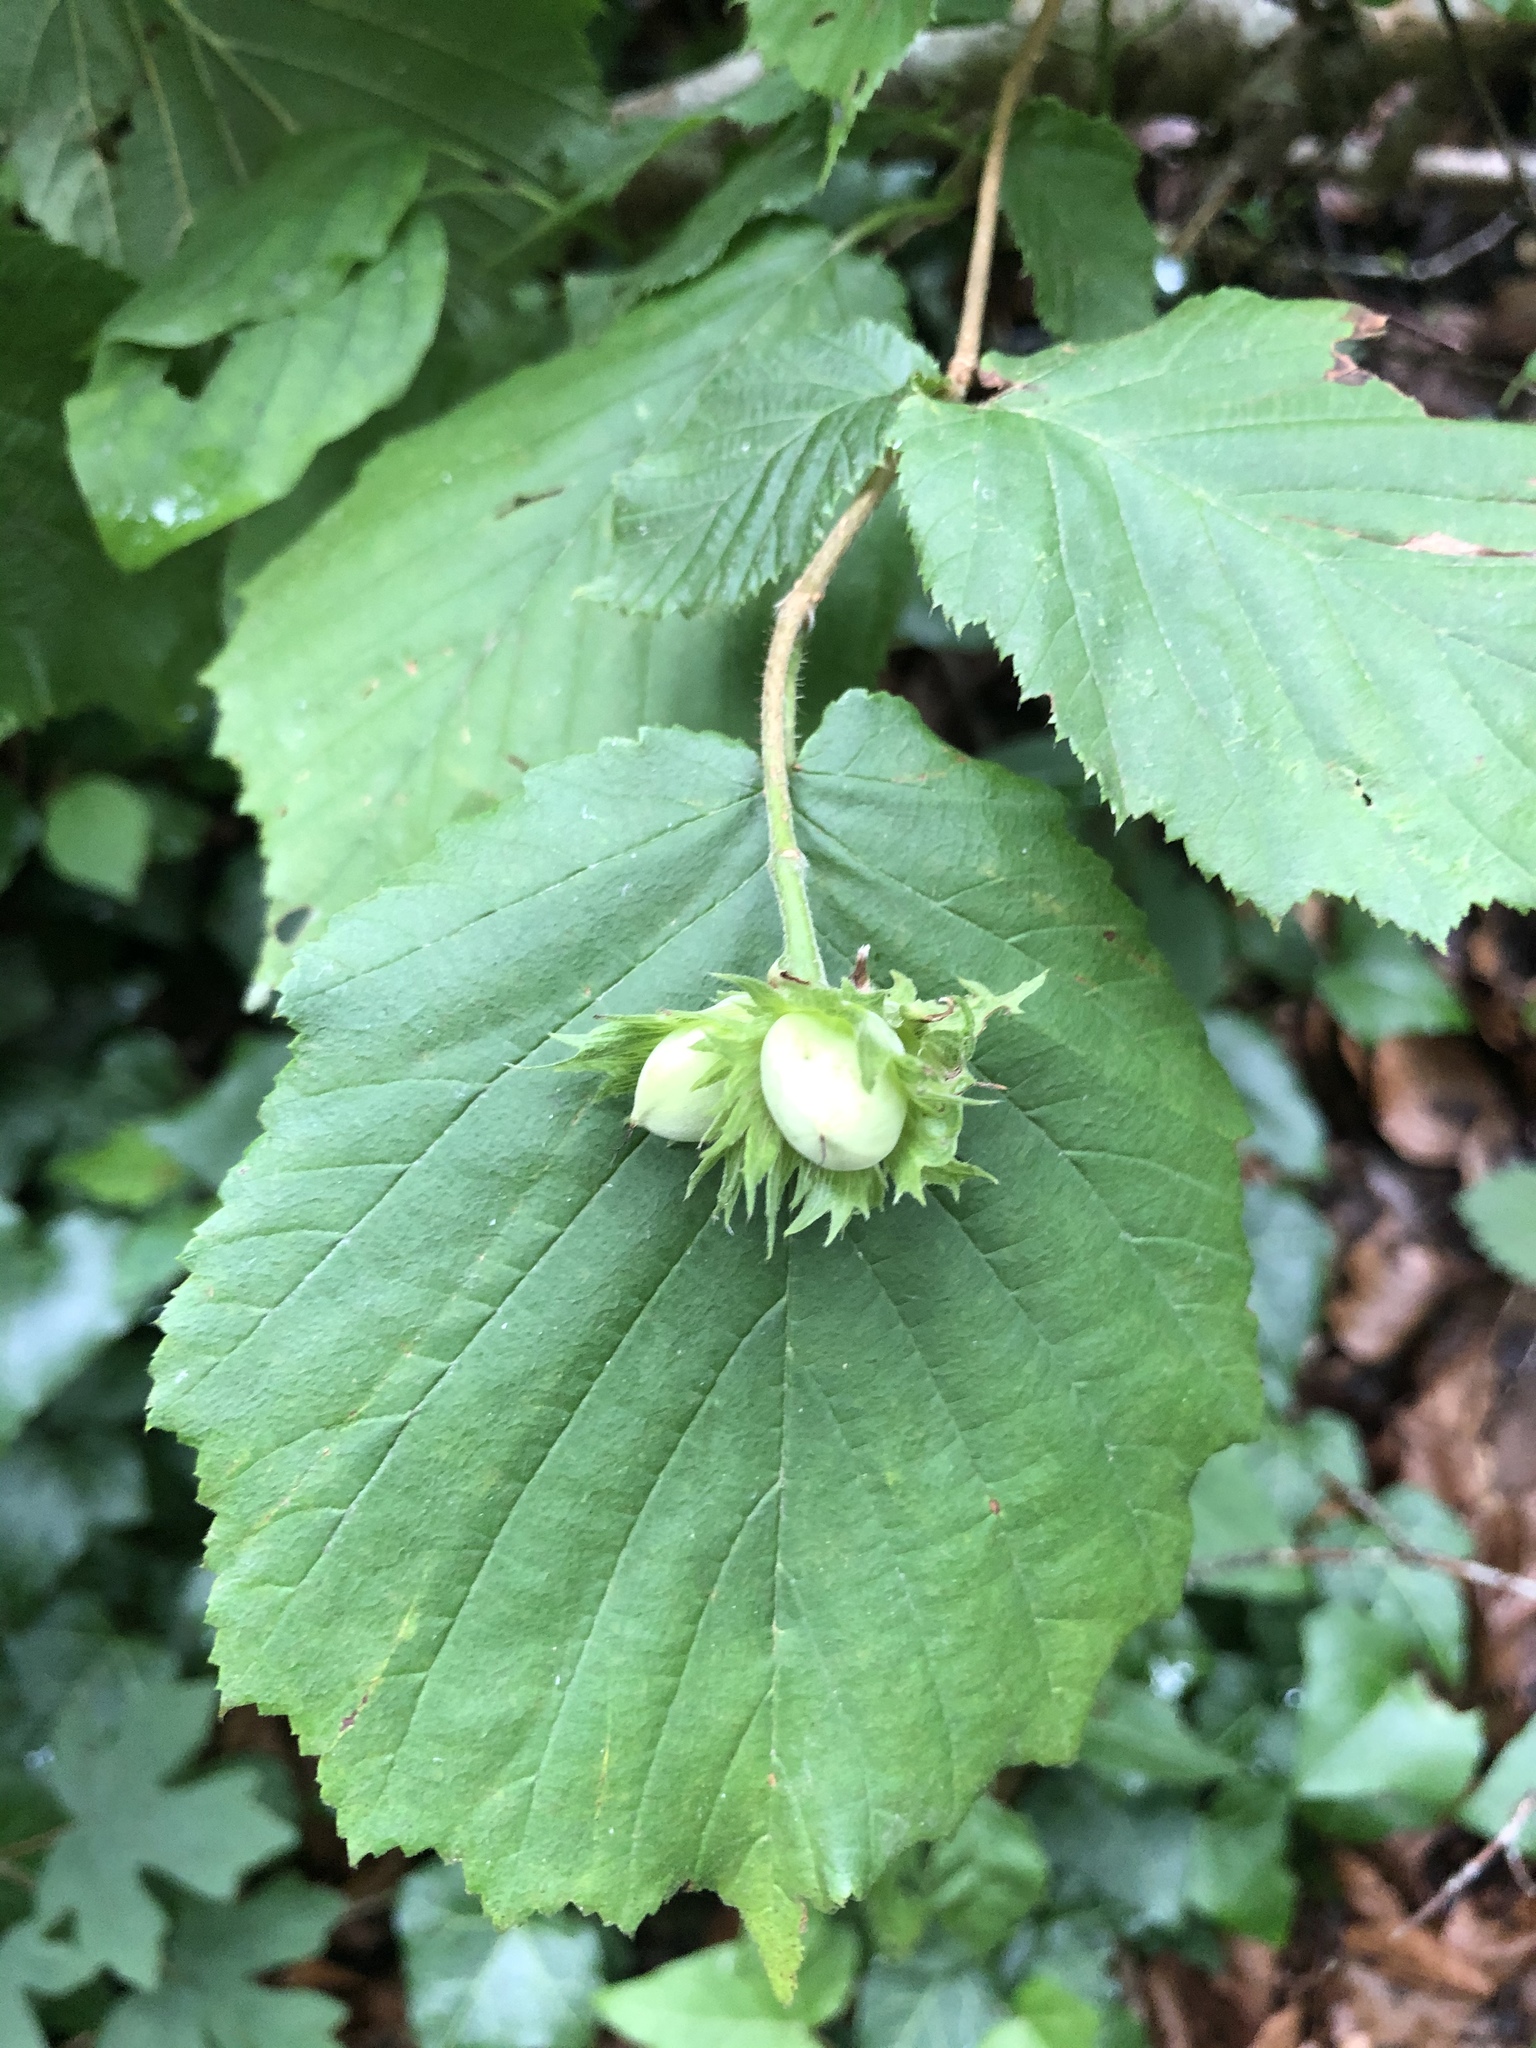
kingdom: Plantae
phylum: Tracheophyta
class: Magnoliopsida
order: Fagales
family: Betulaceae
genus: Corylus
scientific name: Corylus avellana
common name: European hazel
